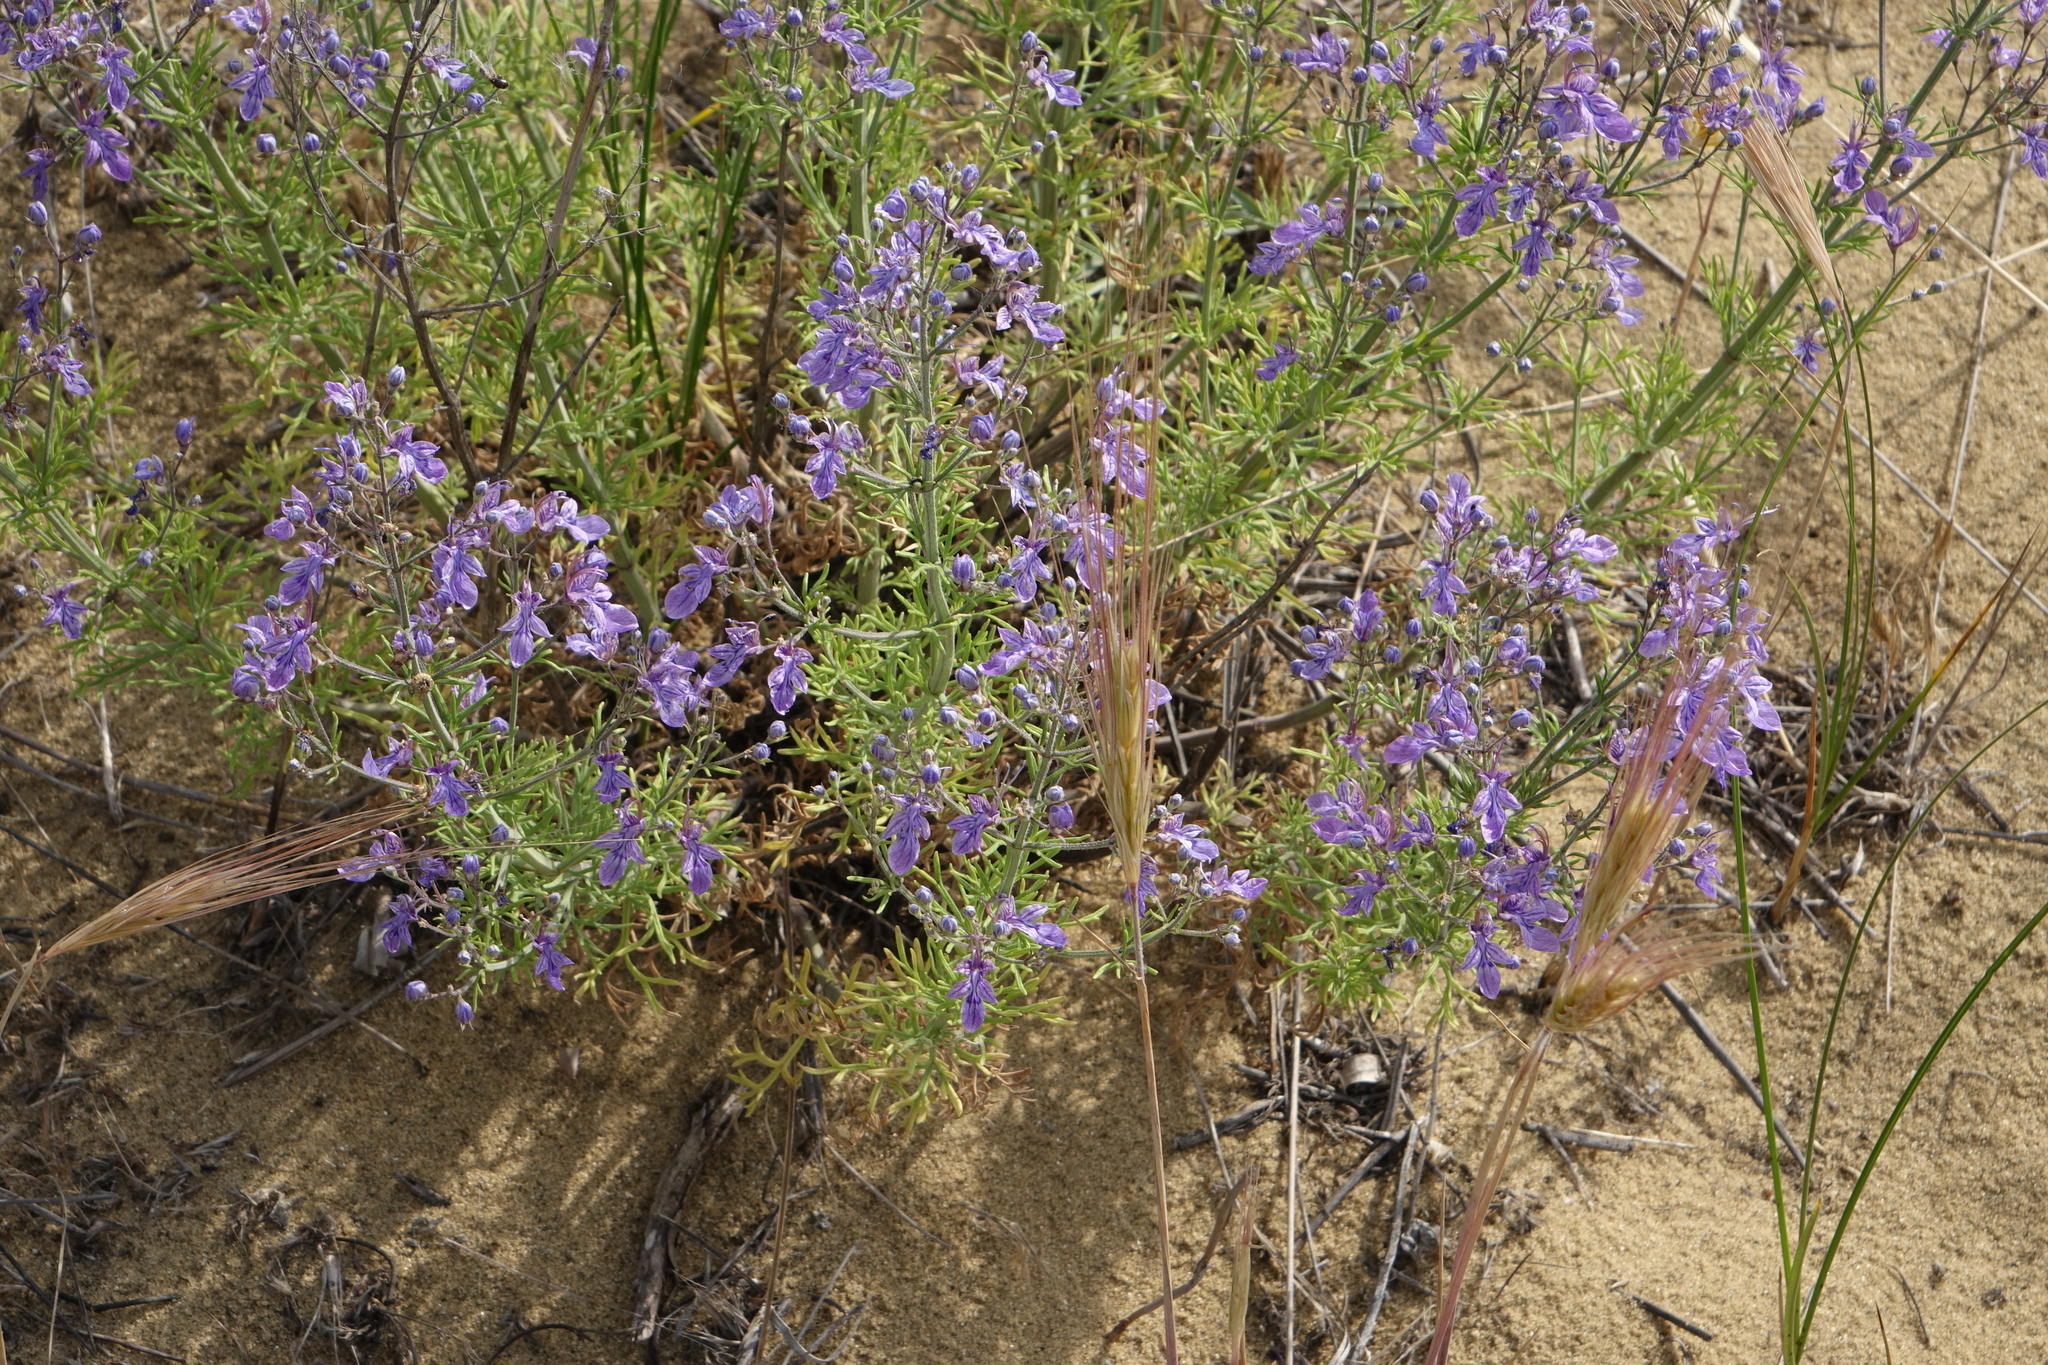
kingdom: Plantae
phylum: Tracheophyta
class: Magnoliopsida
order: Lamiales
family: Lamiaceae
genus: Teucrium
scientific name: Teucrium orientale
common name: Oriental germander
